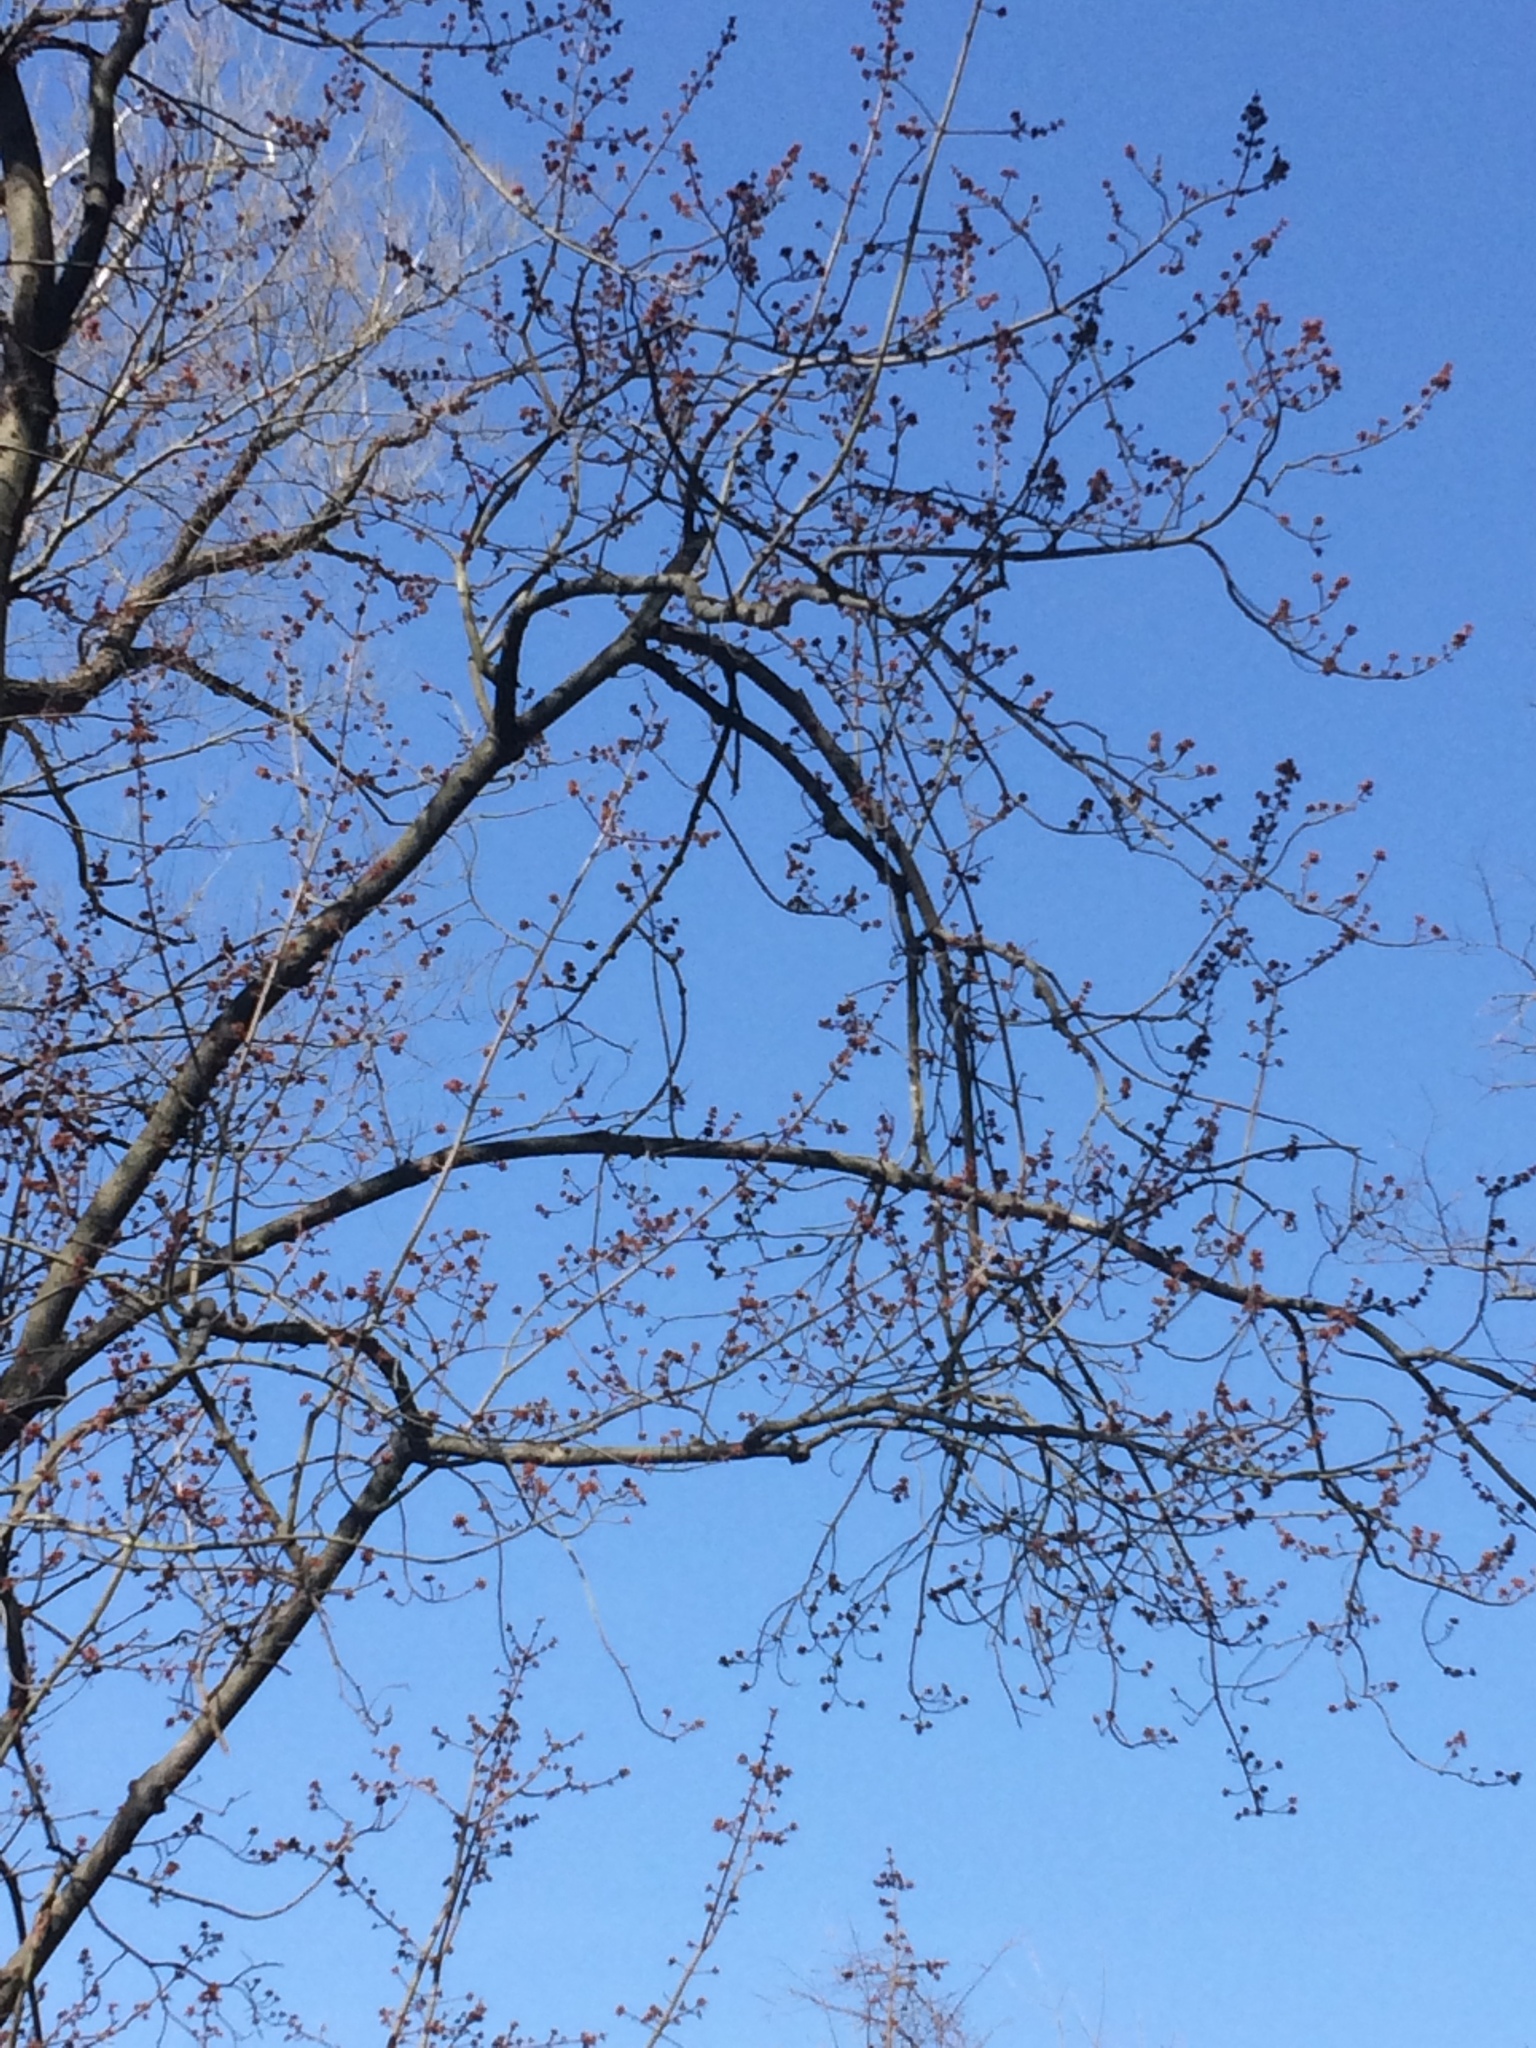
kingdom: Plantae
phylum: Tracheophyta
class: Magnoliopsida
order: Sapindales
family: Sapindaceae
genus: Acer
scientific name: Acer rubrum
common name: Red maple
